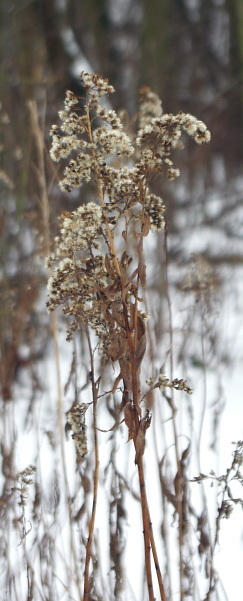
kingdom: Plantae
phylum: Tracheophyta
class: Magnoliopsida
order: Asterales
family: Asteraceae
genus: Solidago
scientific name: Solidago gigantea
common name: Giant goldenrod
